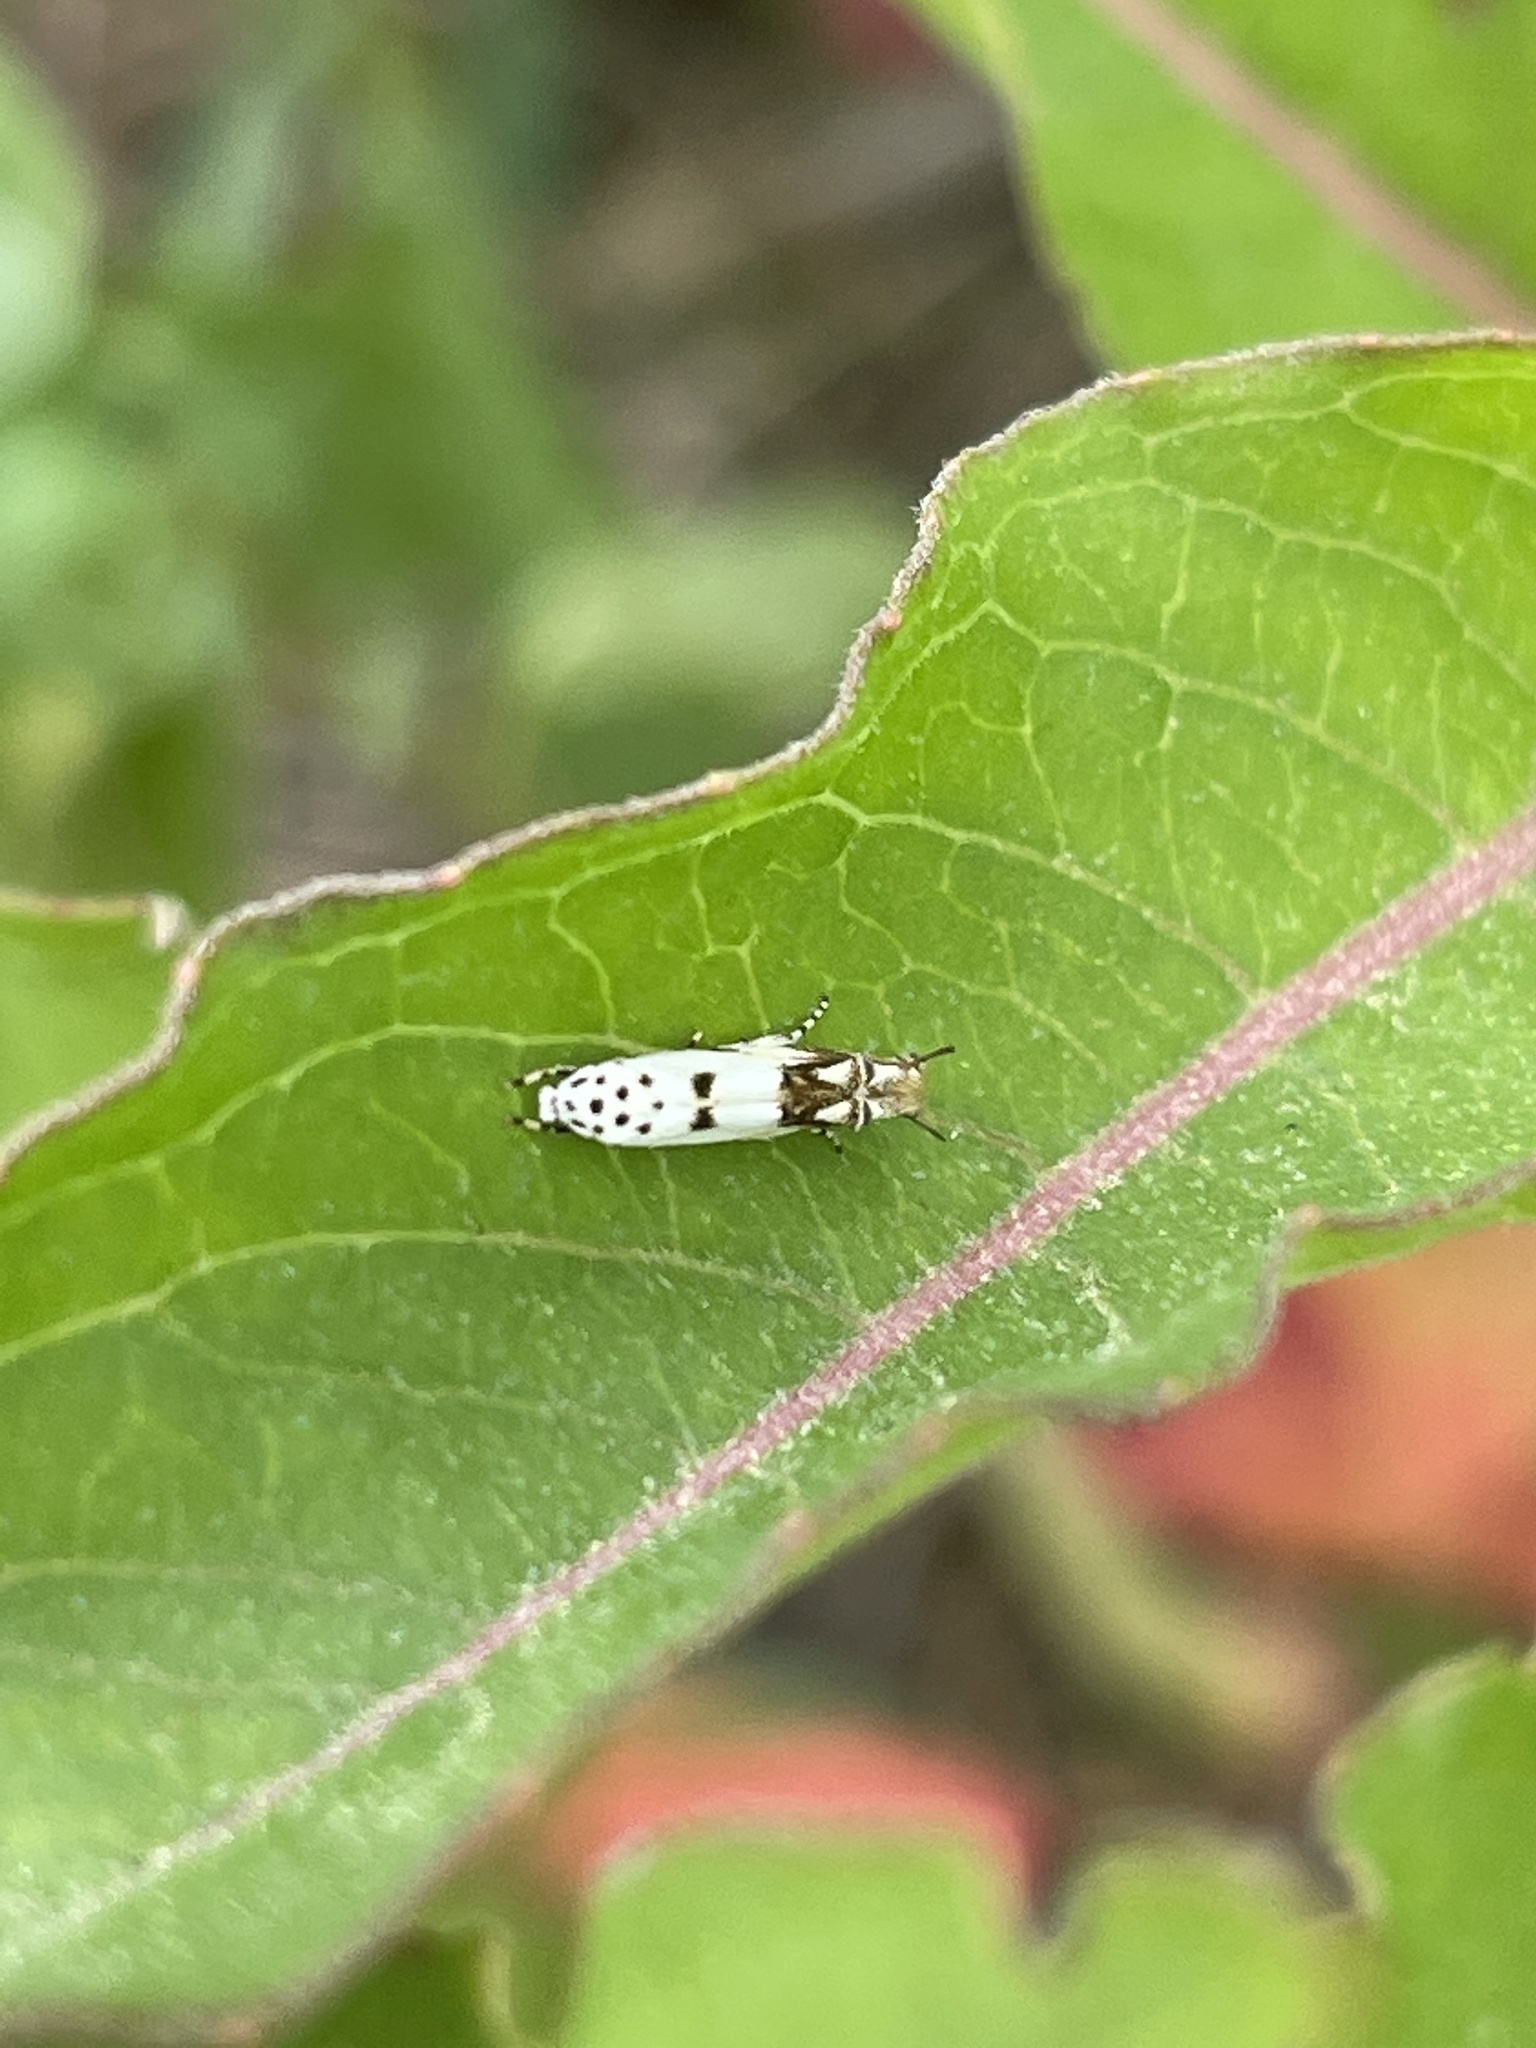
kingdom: Animalia
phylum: Arthropoda
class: Insecta
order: Lepidoptera
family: Momphidae
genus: Mompha
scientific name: Mompha eloisella
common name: Red-streaked mompha moth
